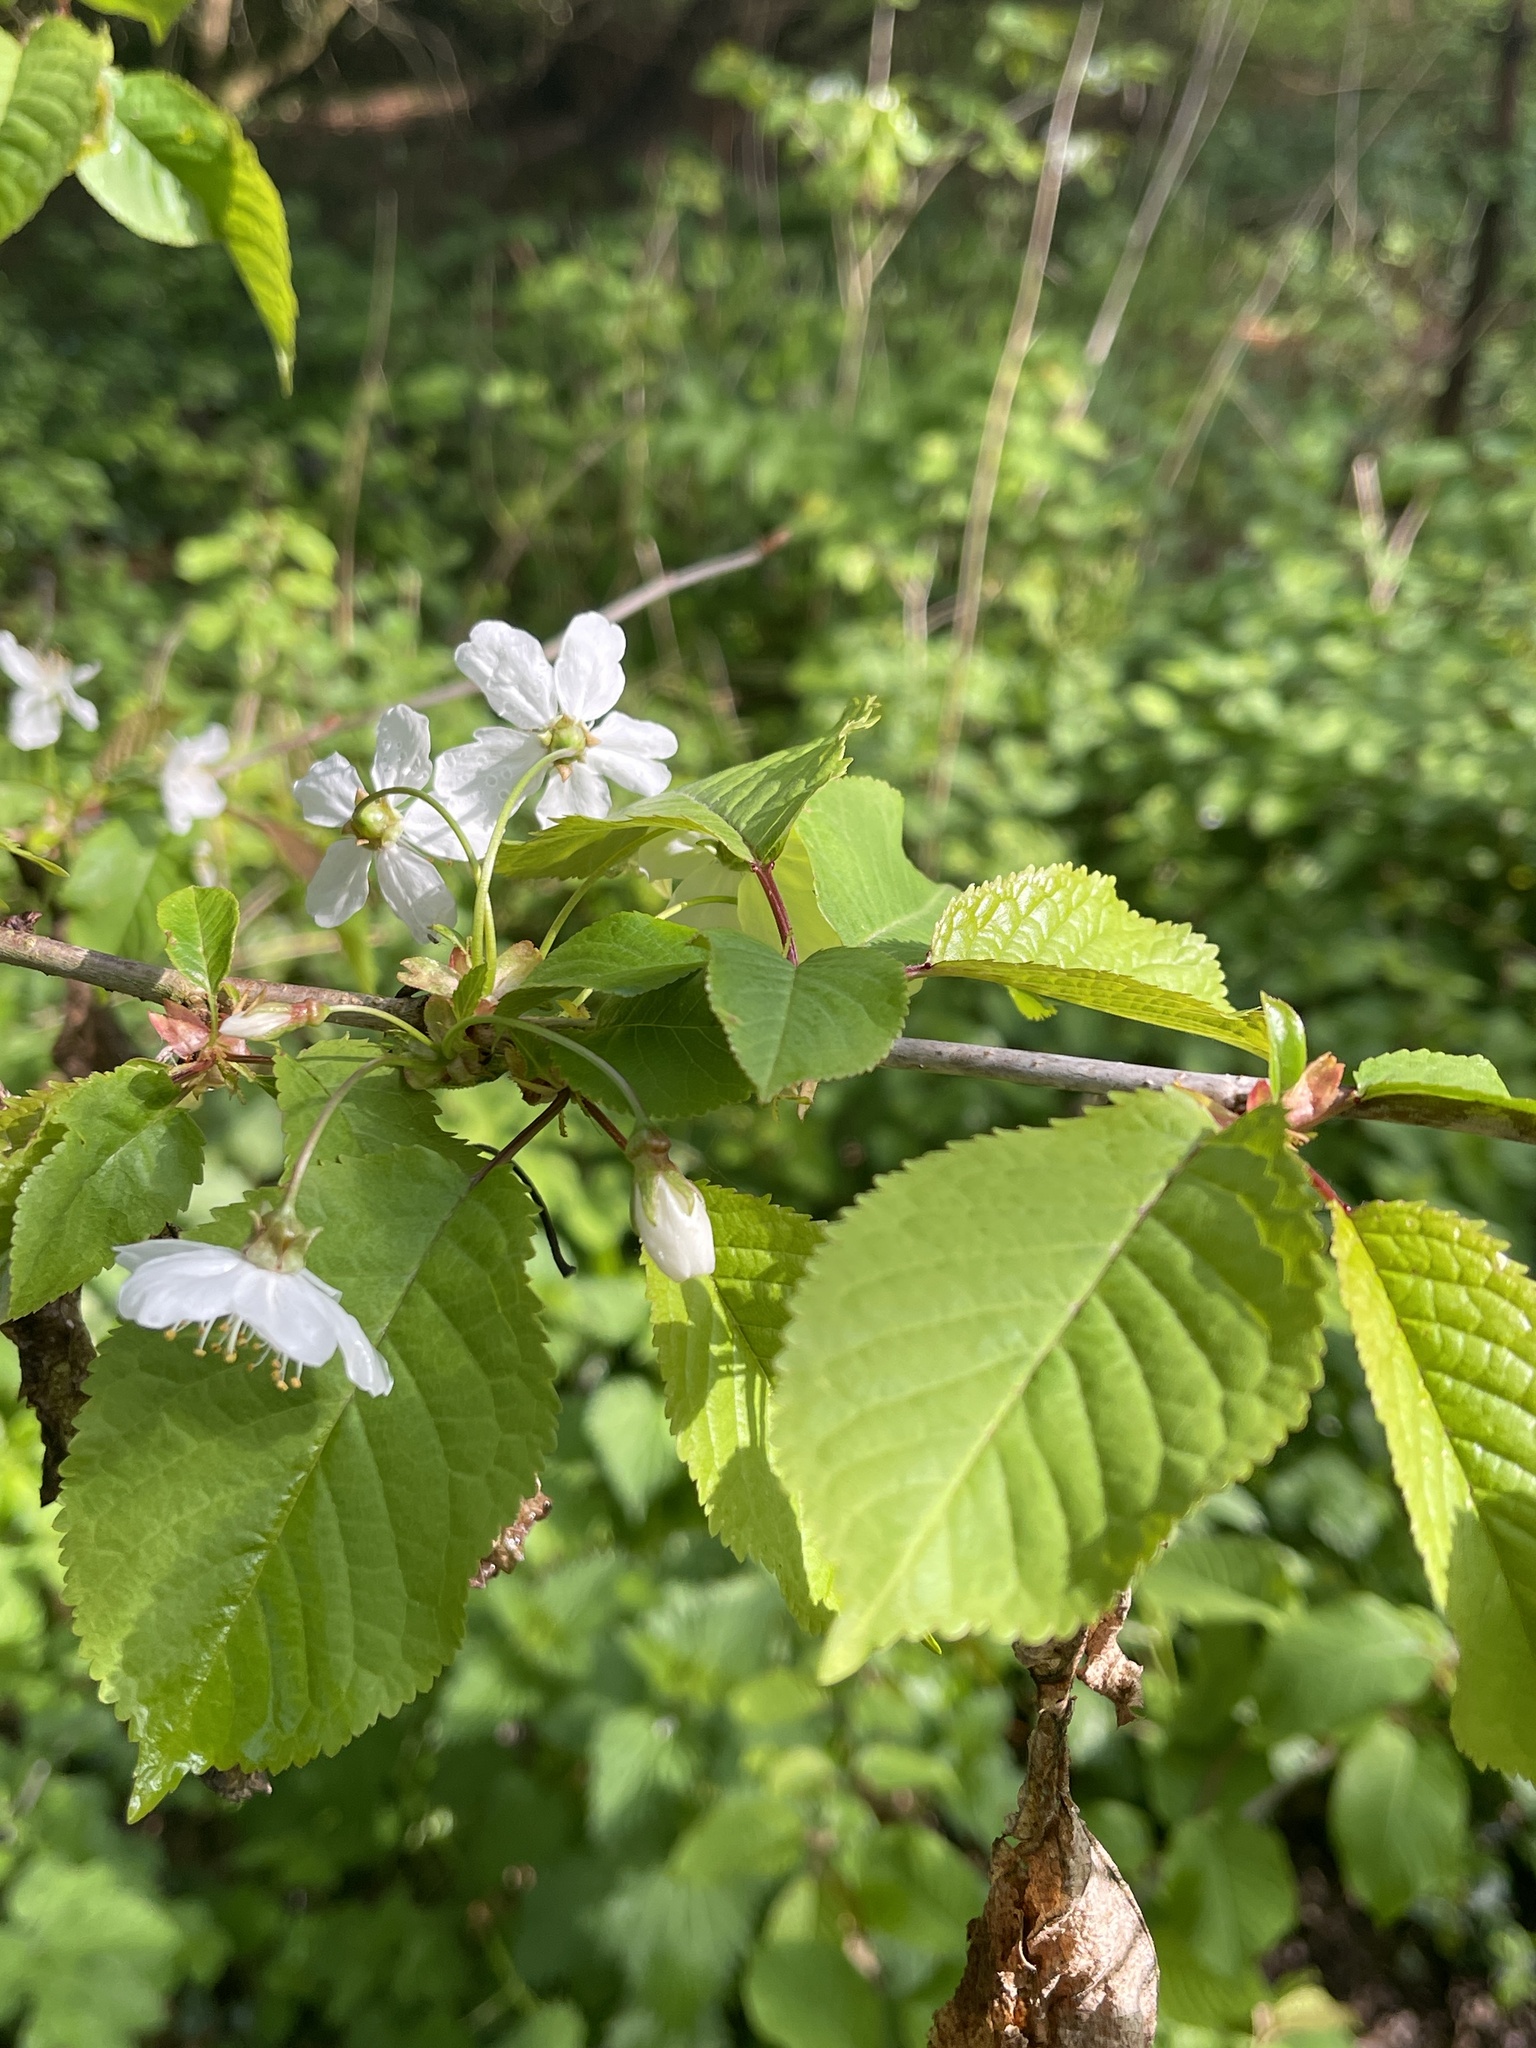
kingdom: Plantae
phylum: Tracheophyta
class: Magnoliopsida
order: Rosales
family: Rosaceae
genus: Prunus
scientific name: Prunus avium
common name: Sweet cherry
